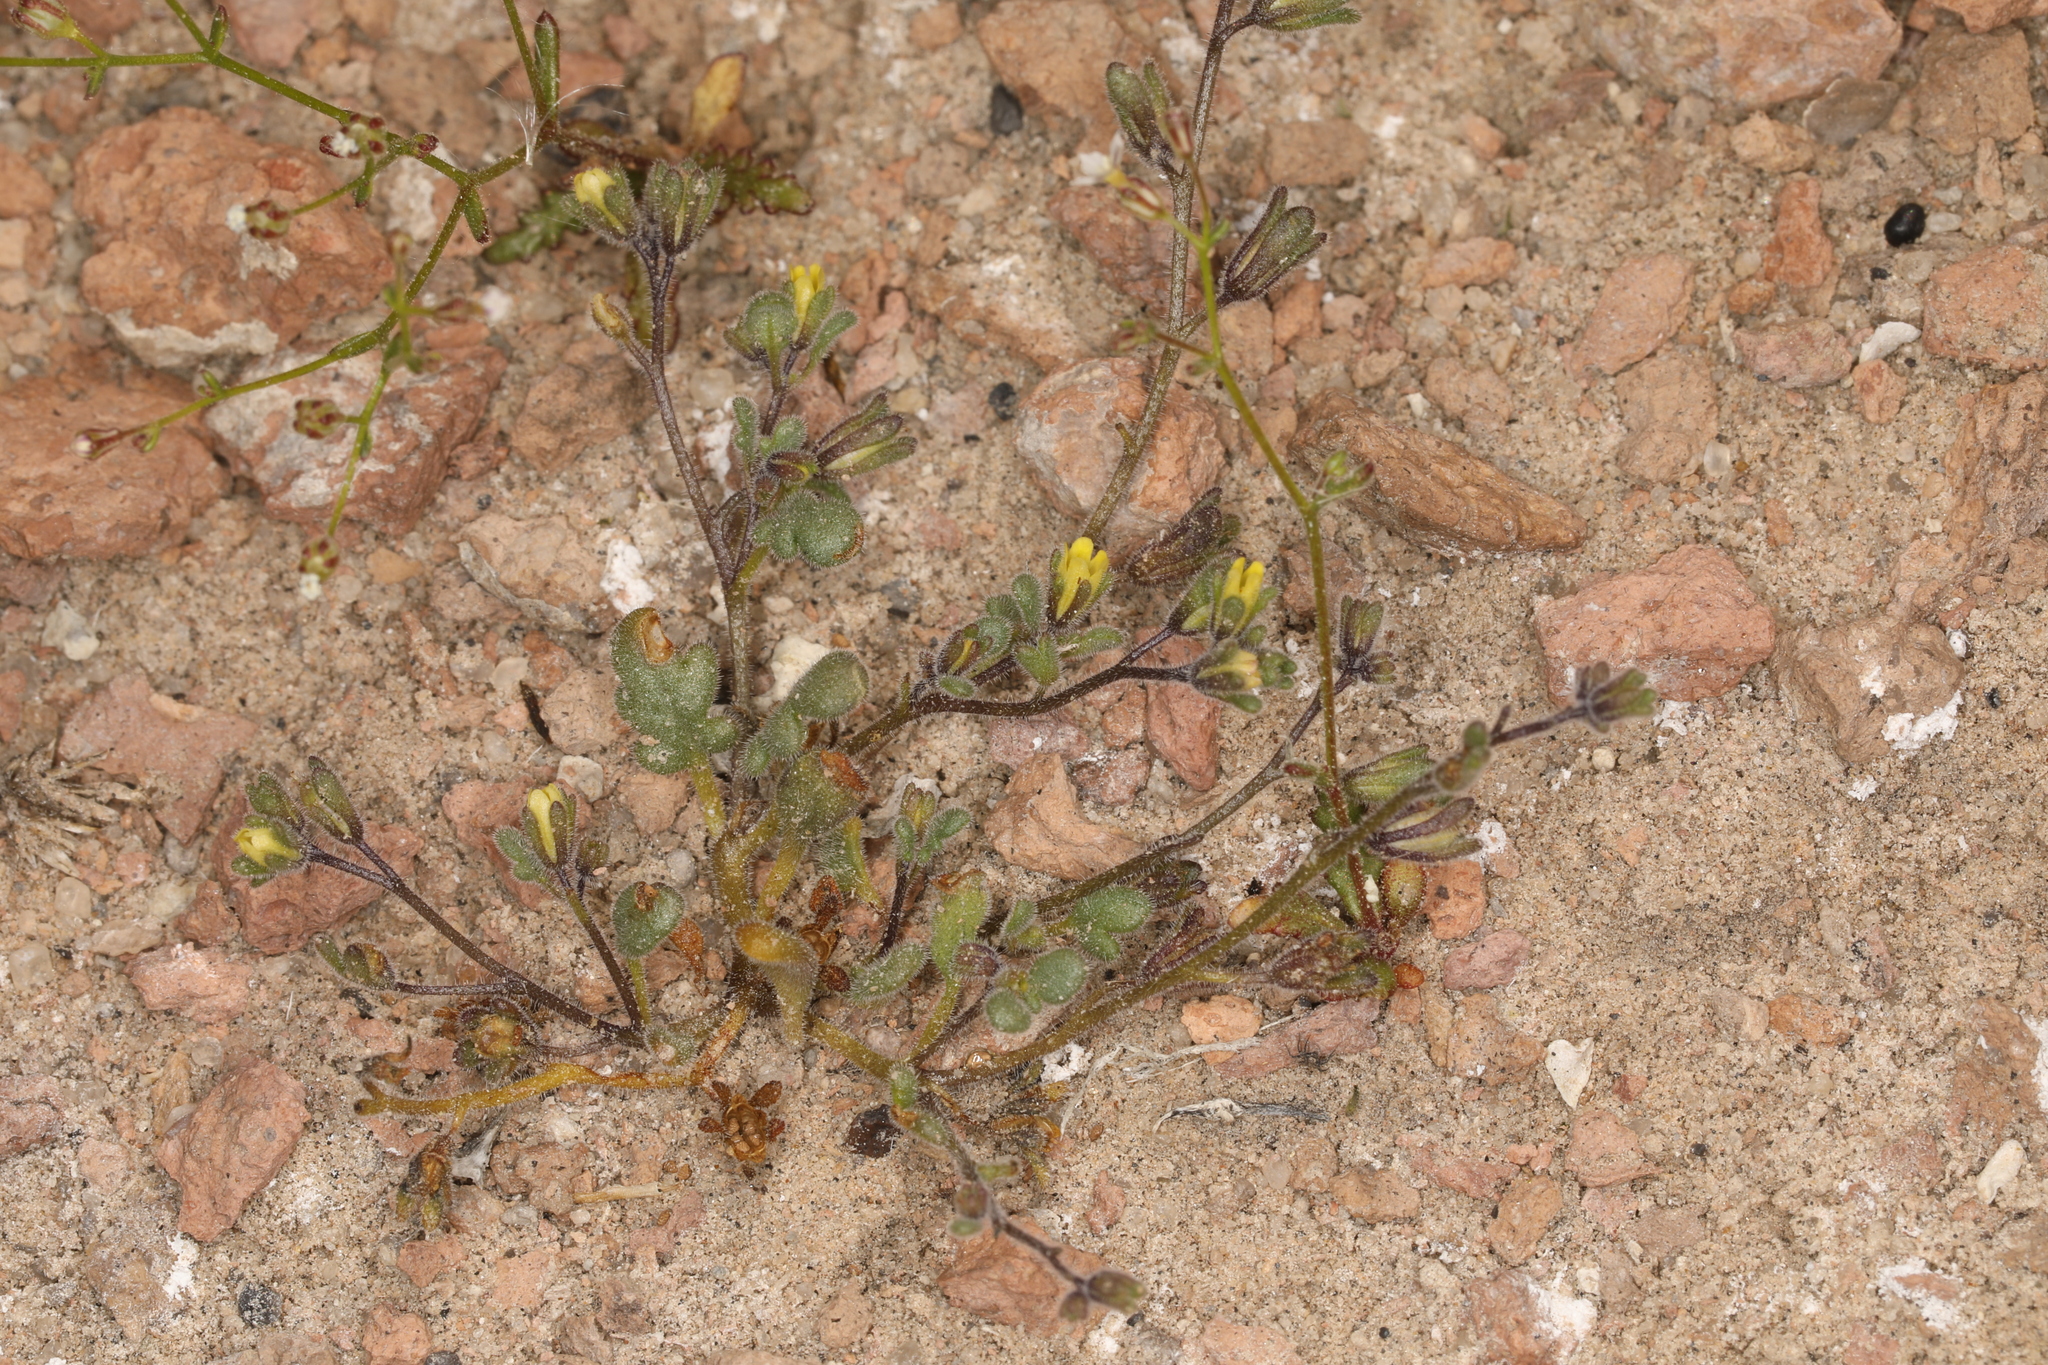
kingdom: Plantae
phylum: Tracheophyta
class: Magnoliopsida
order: Boraginales
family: Hydrophyllaceae
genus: Phacelia
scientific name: Phacelia inyoensis
